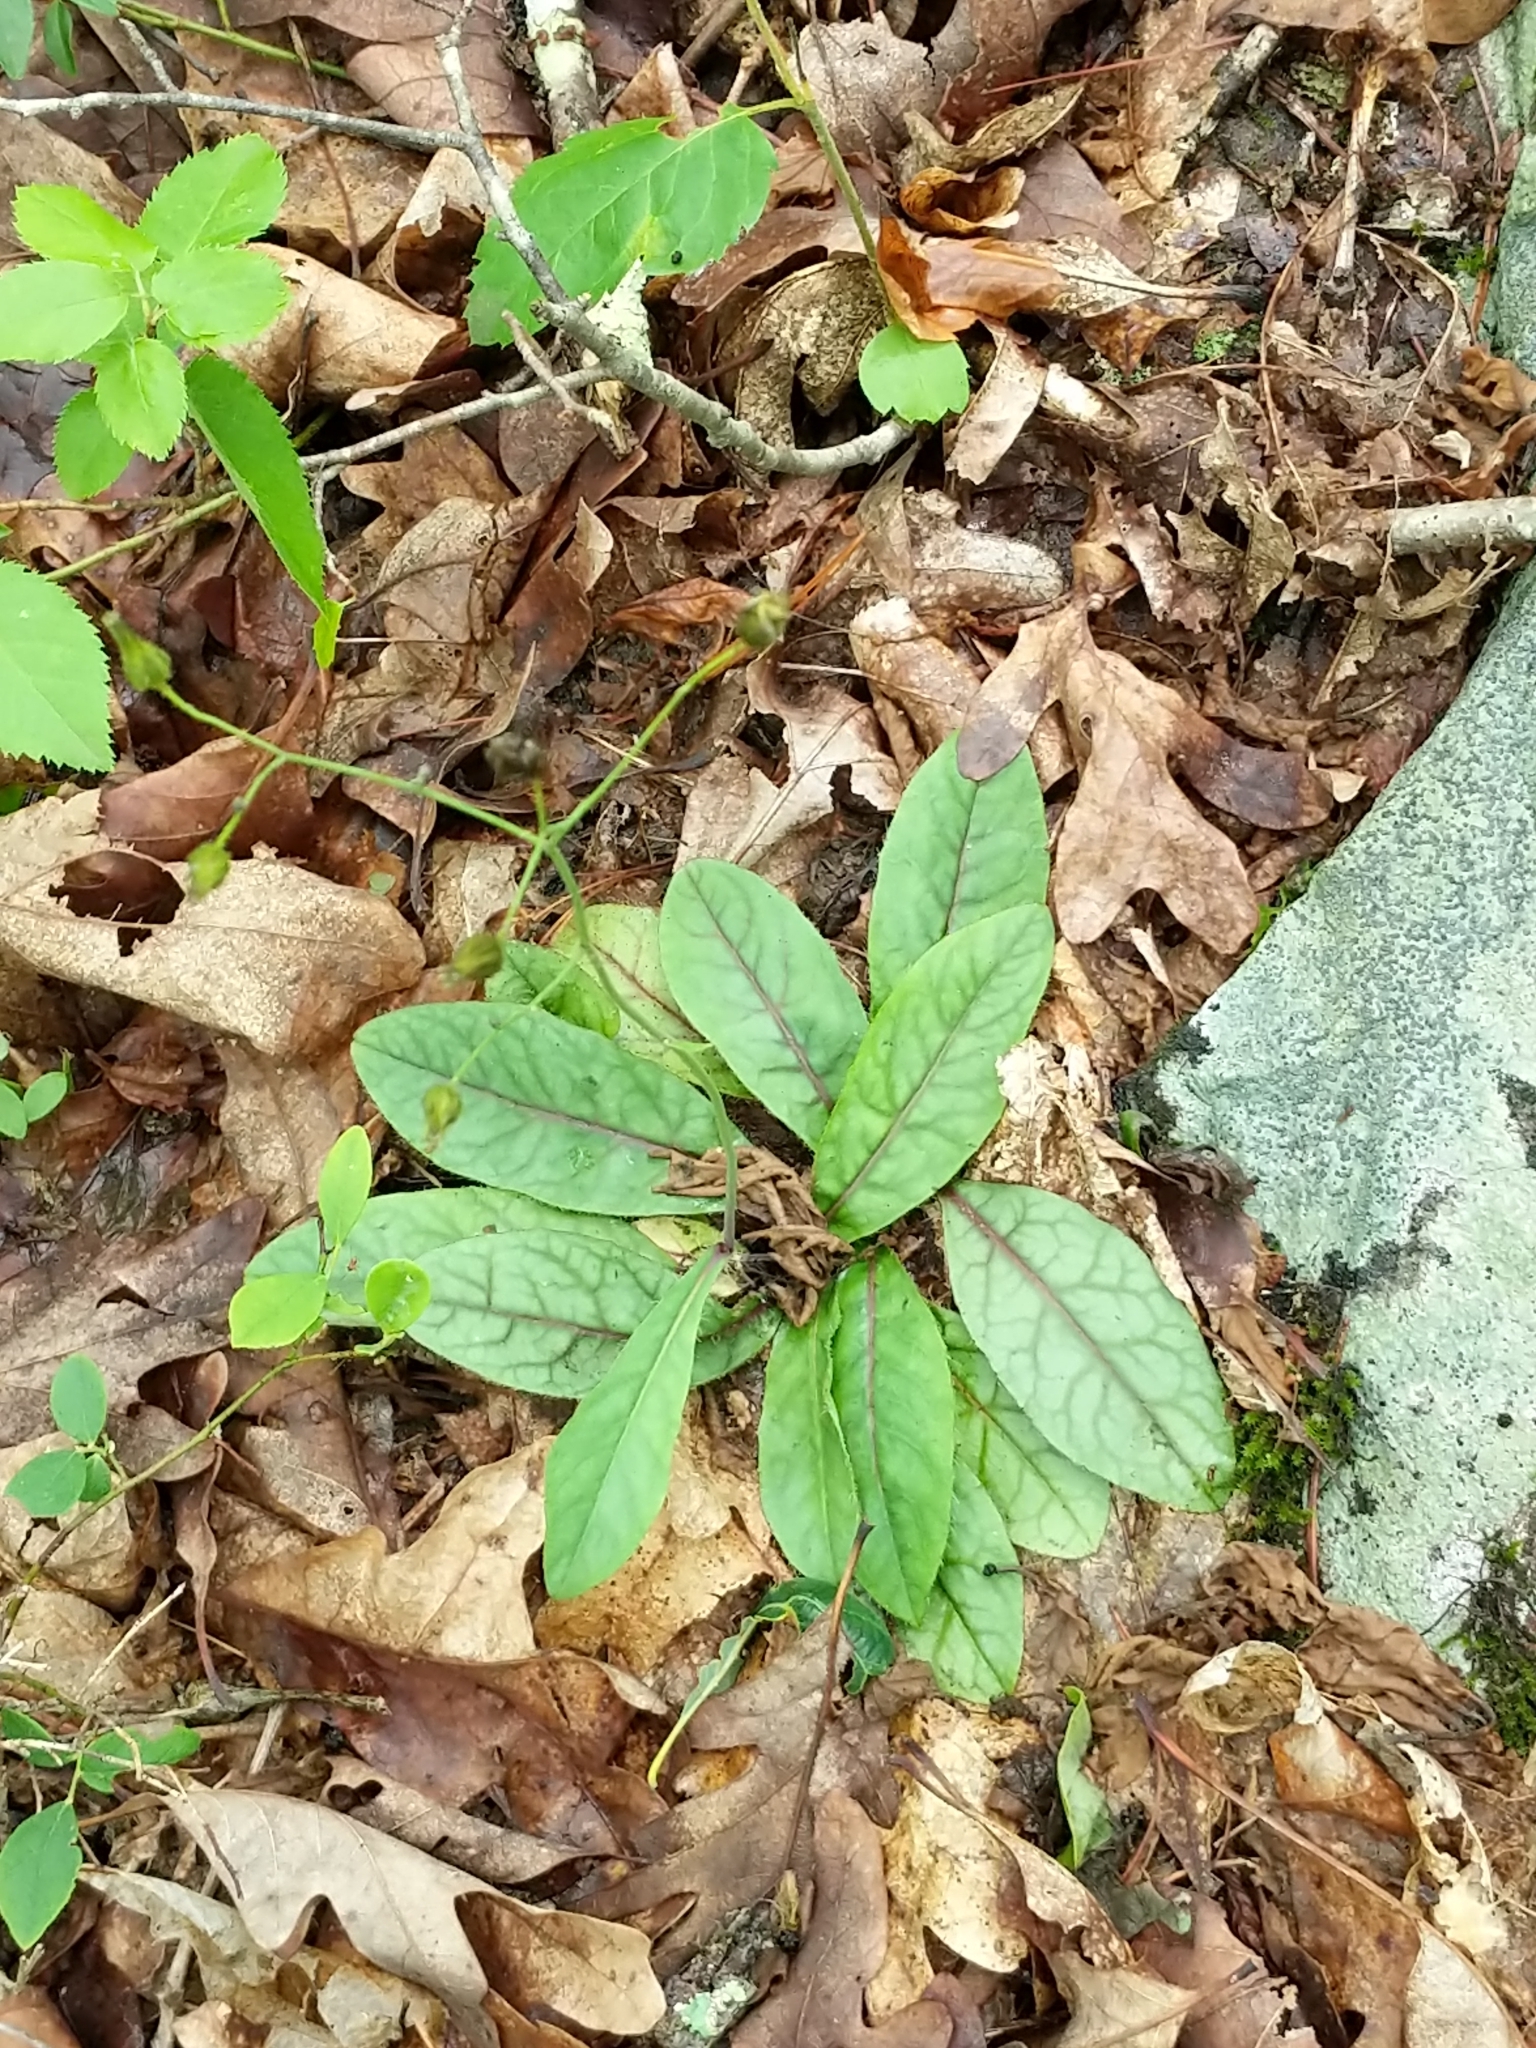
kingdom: Plantae
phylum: Tracheophyta
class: Magnoliopsida
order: Asterales
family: Asteraceae
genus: Hieracium
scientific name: Hieracium venosum
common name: Rattlesnake hawkweed
